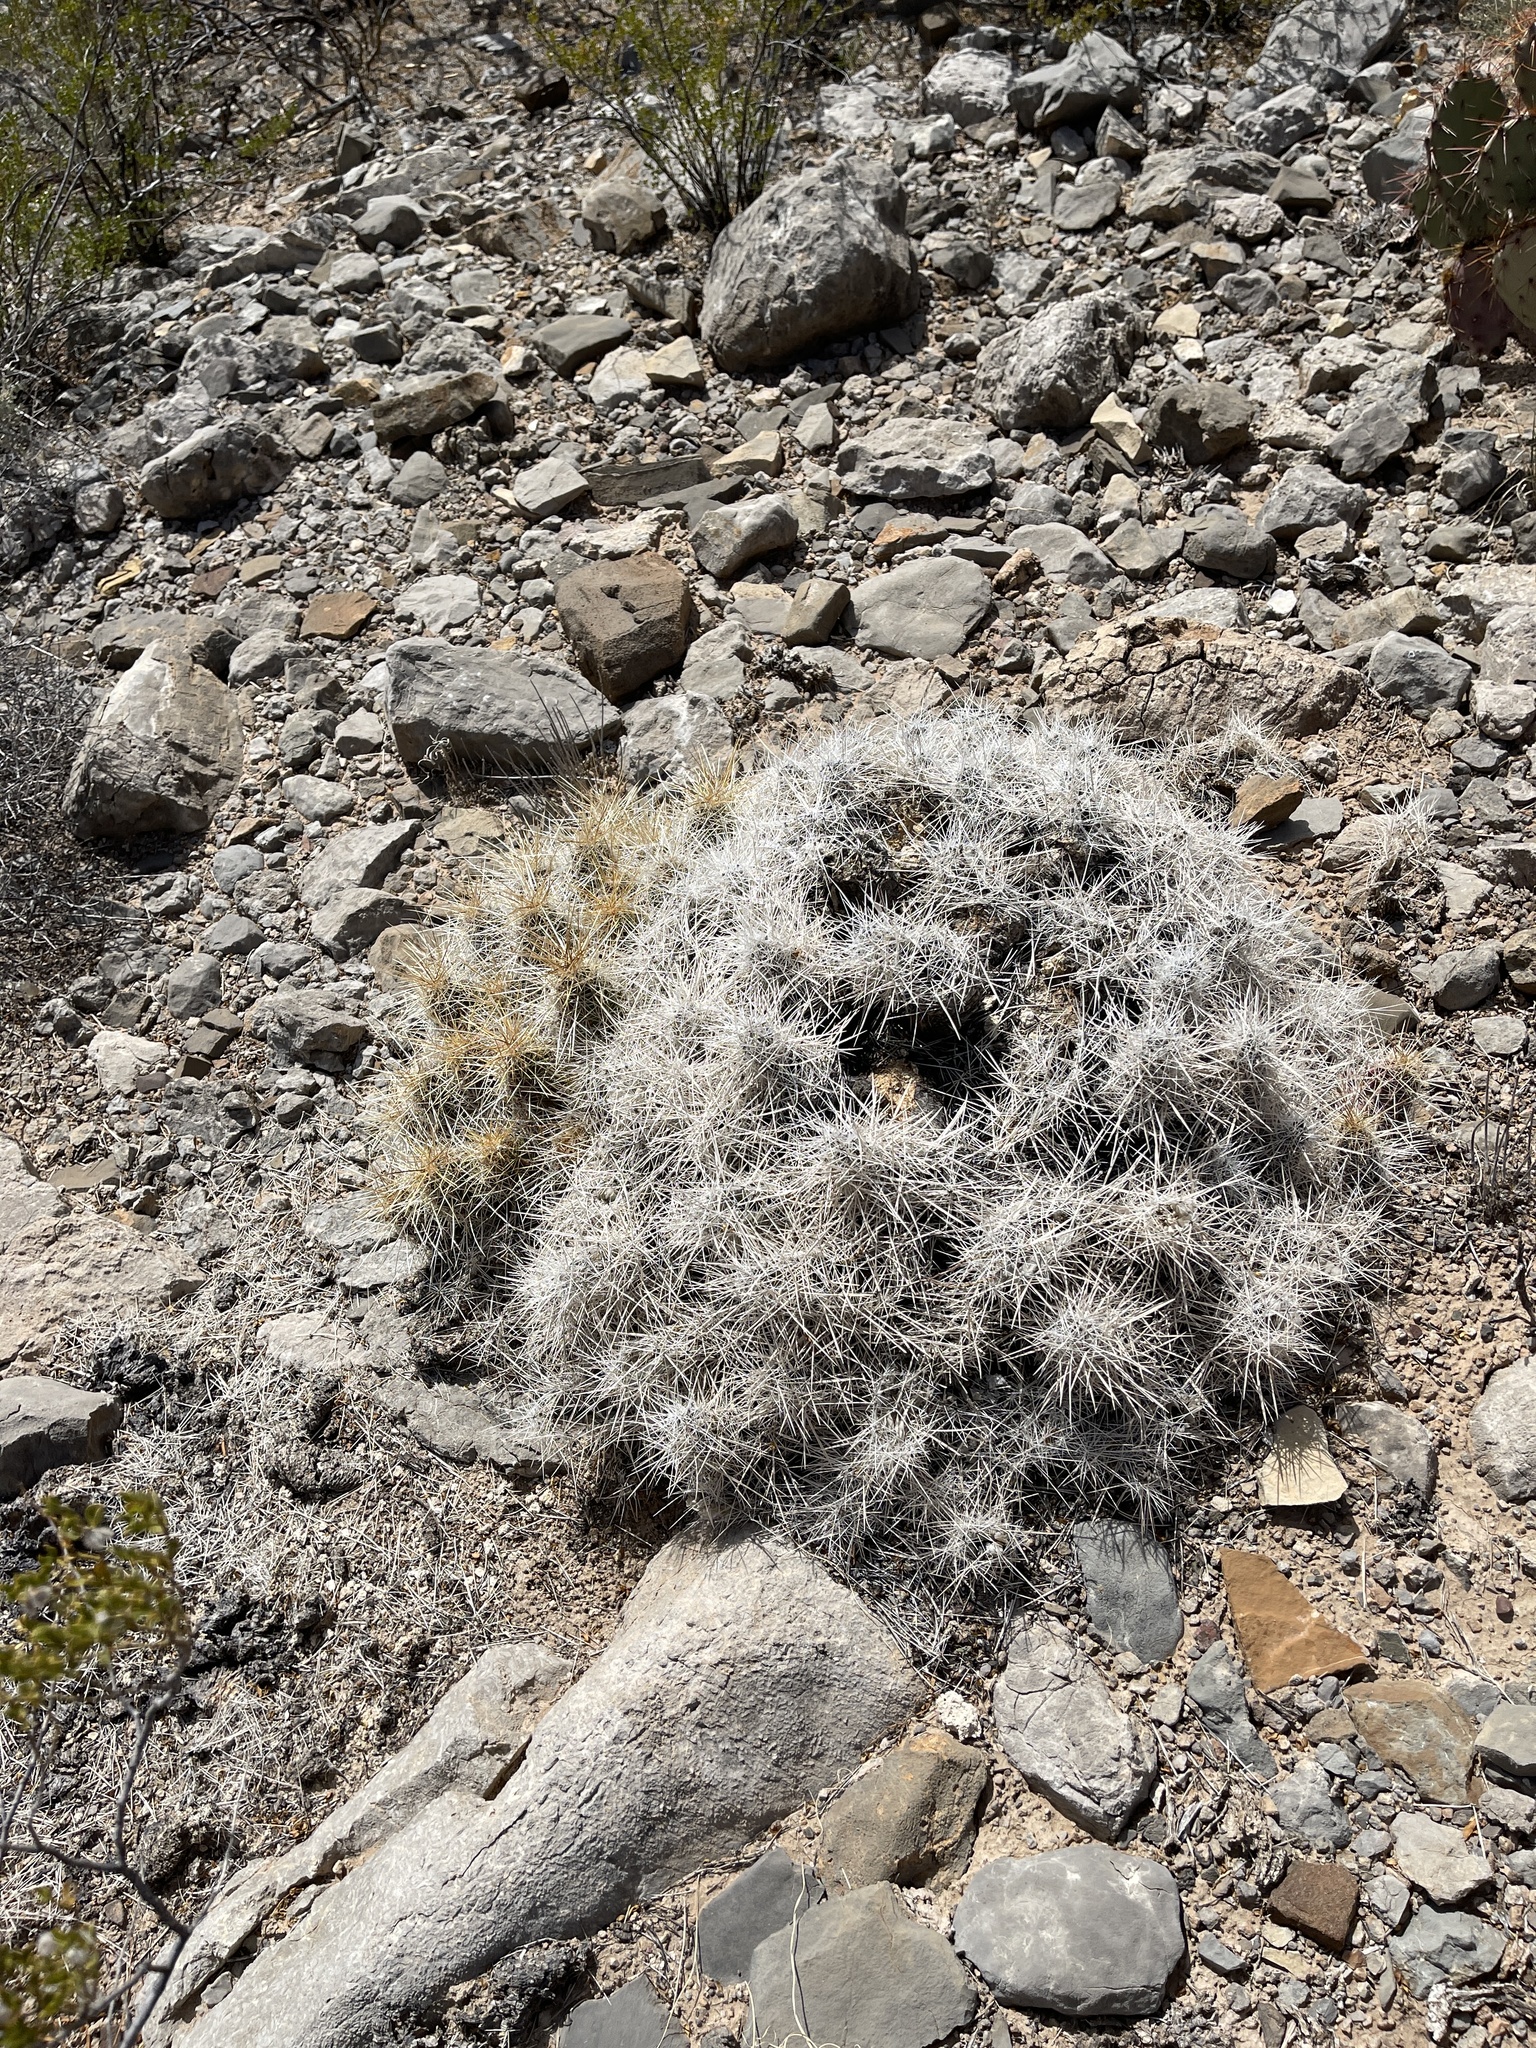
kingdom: Plantae
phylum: Tracheophyta
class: Magnoliopsida
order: Caryophyllales
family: Cactaceae
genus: Echinocereus
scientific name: Echinocereus stramineus
